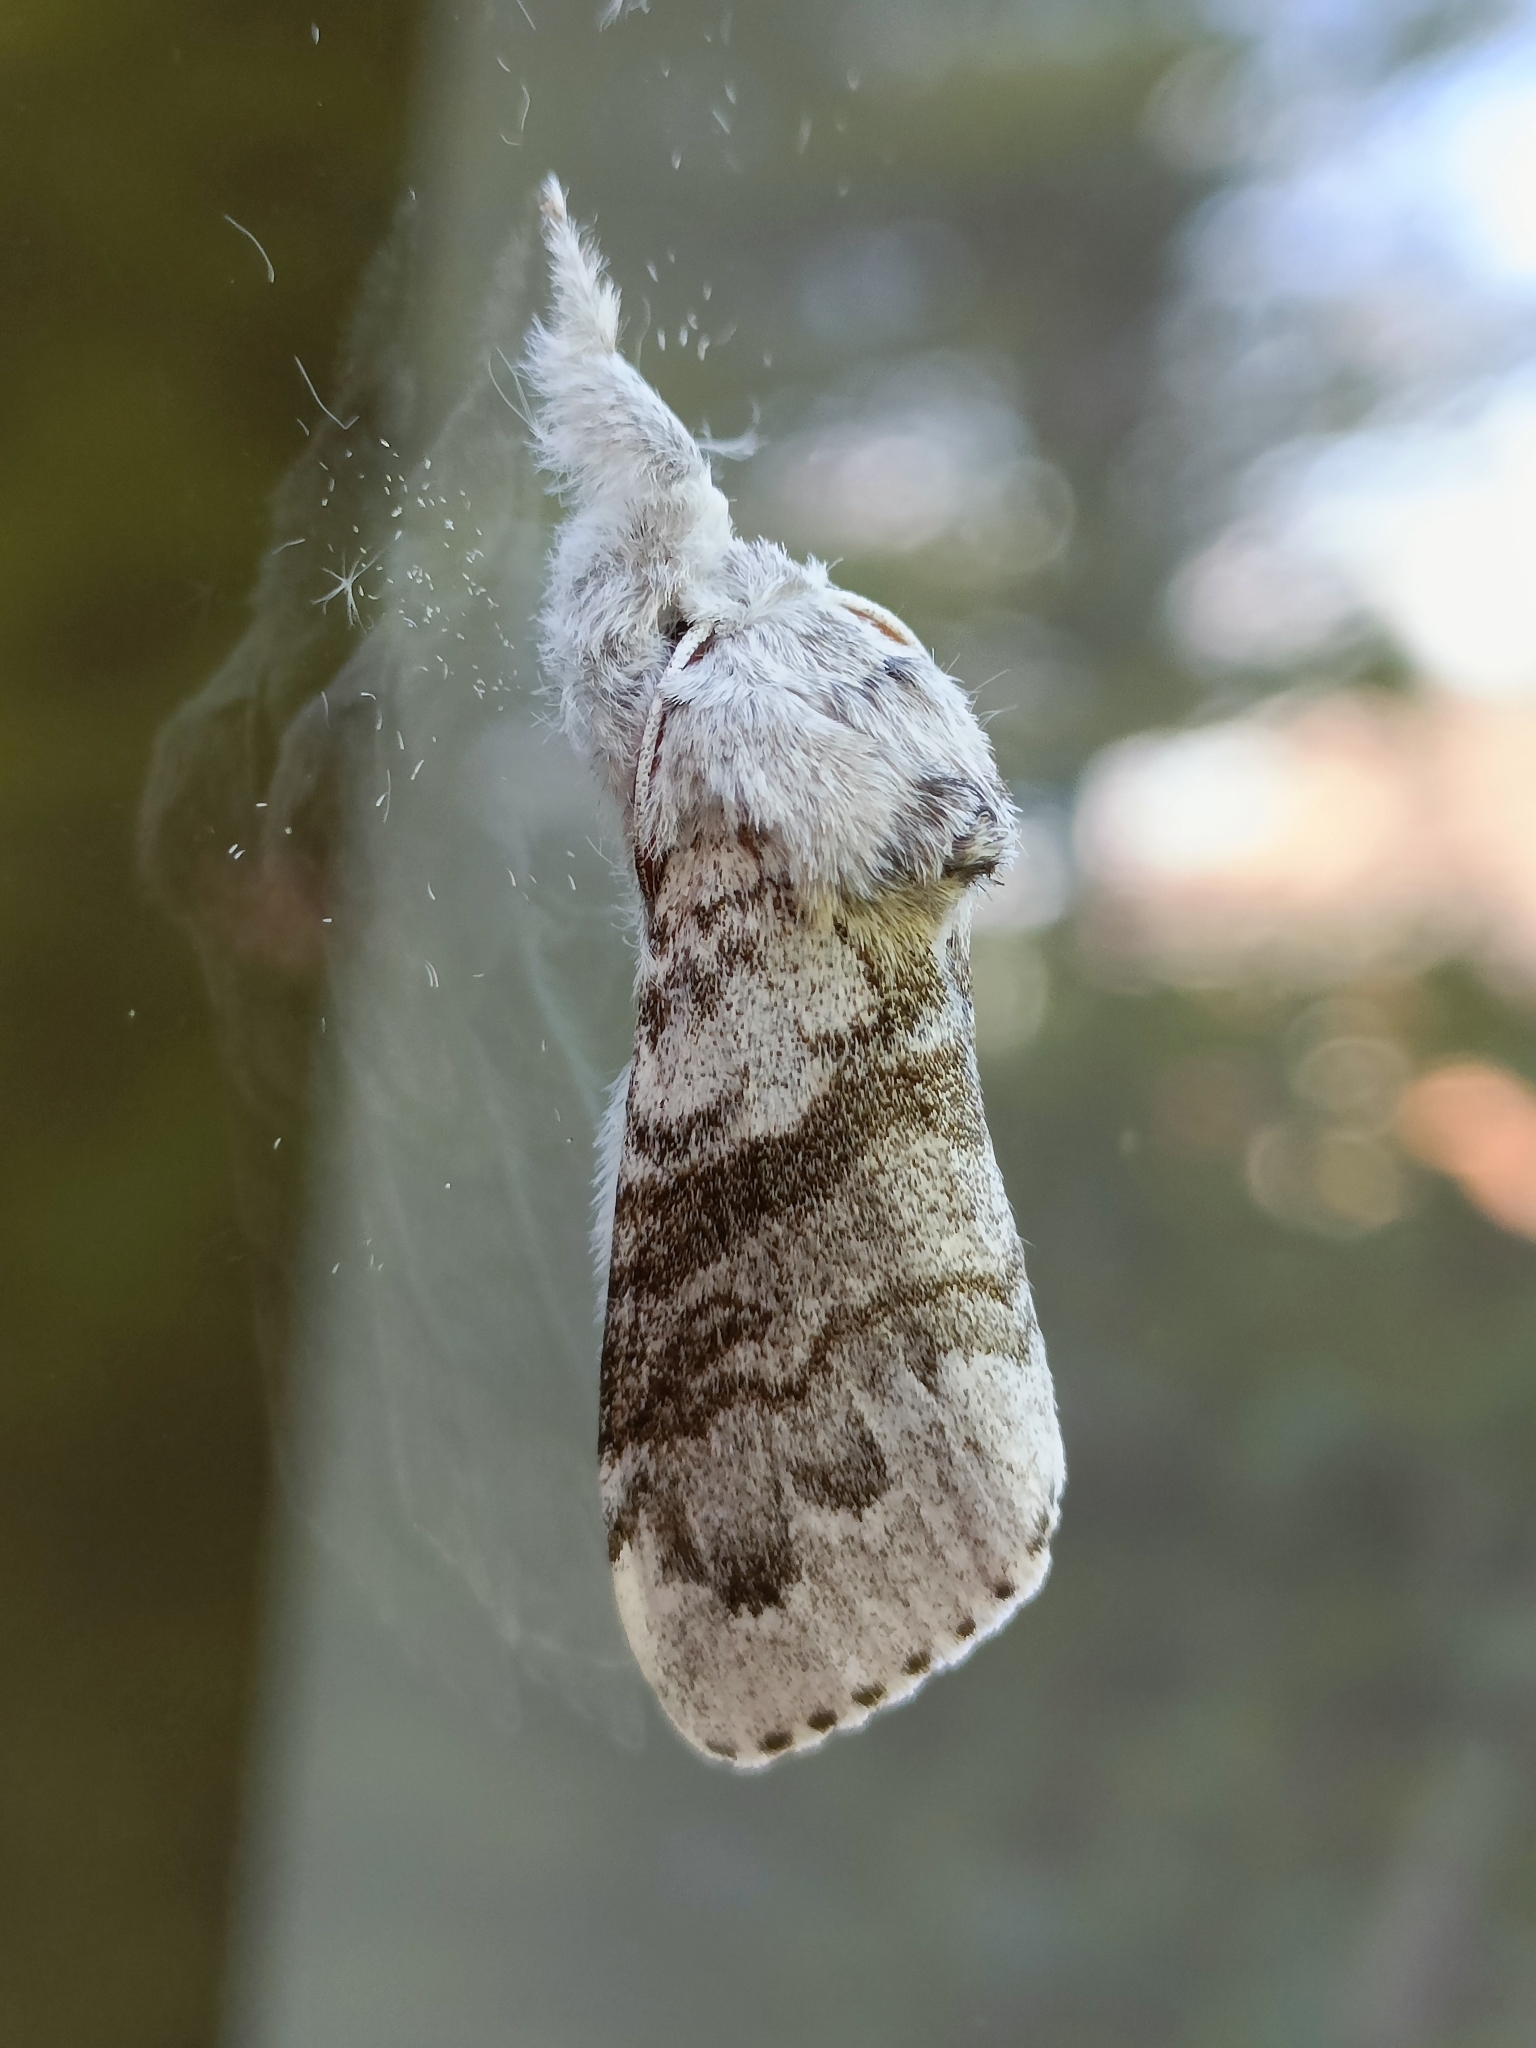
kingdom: Animalia
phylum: Arthropoda
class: Insecta
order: Lepidoptera
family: Erebidae
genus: Calliteara
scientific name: Calliteara pudibunda
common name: Pale tussock
